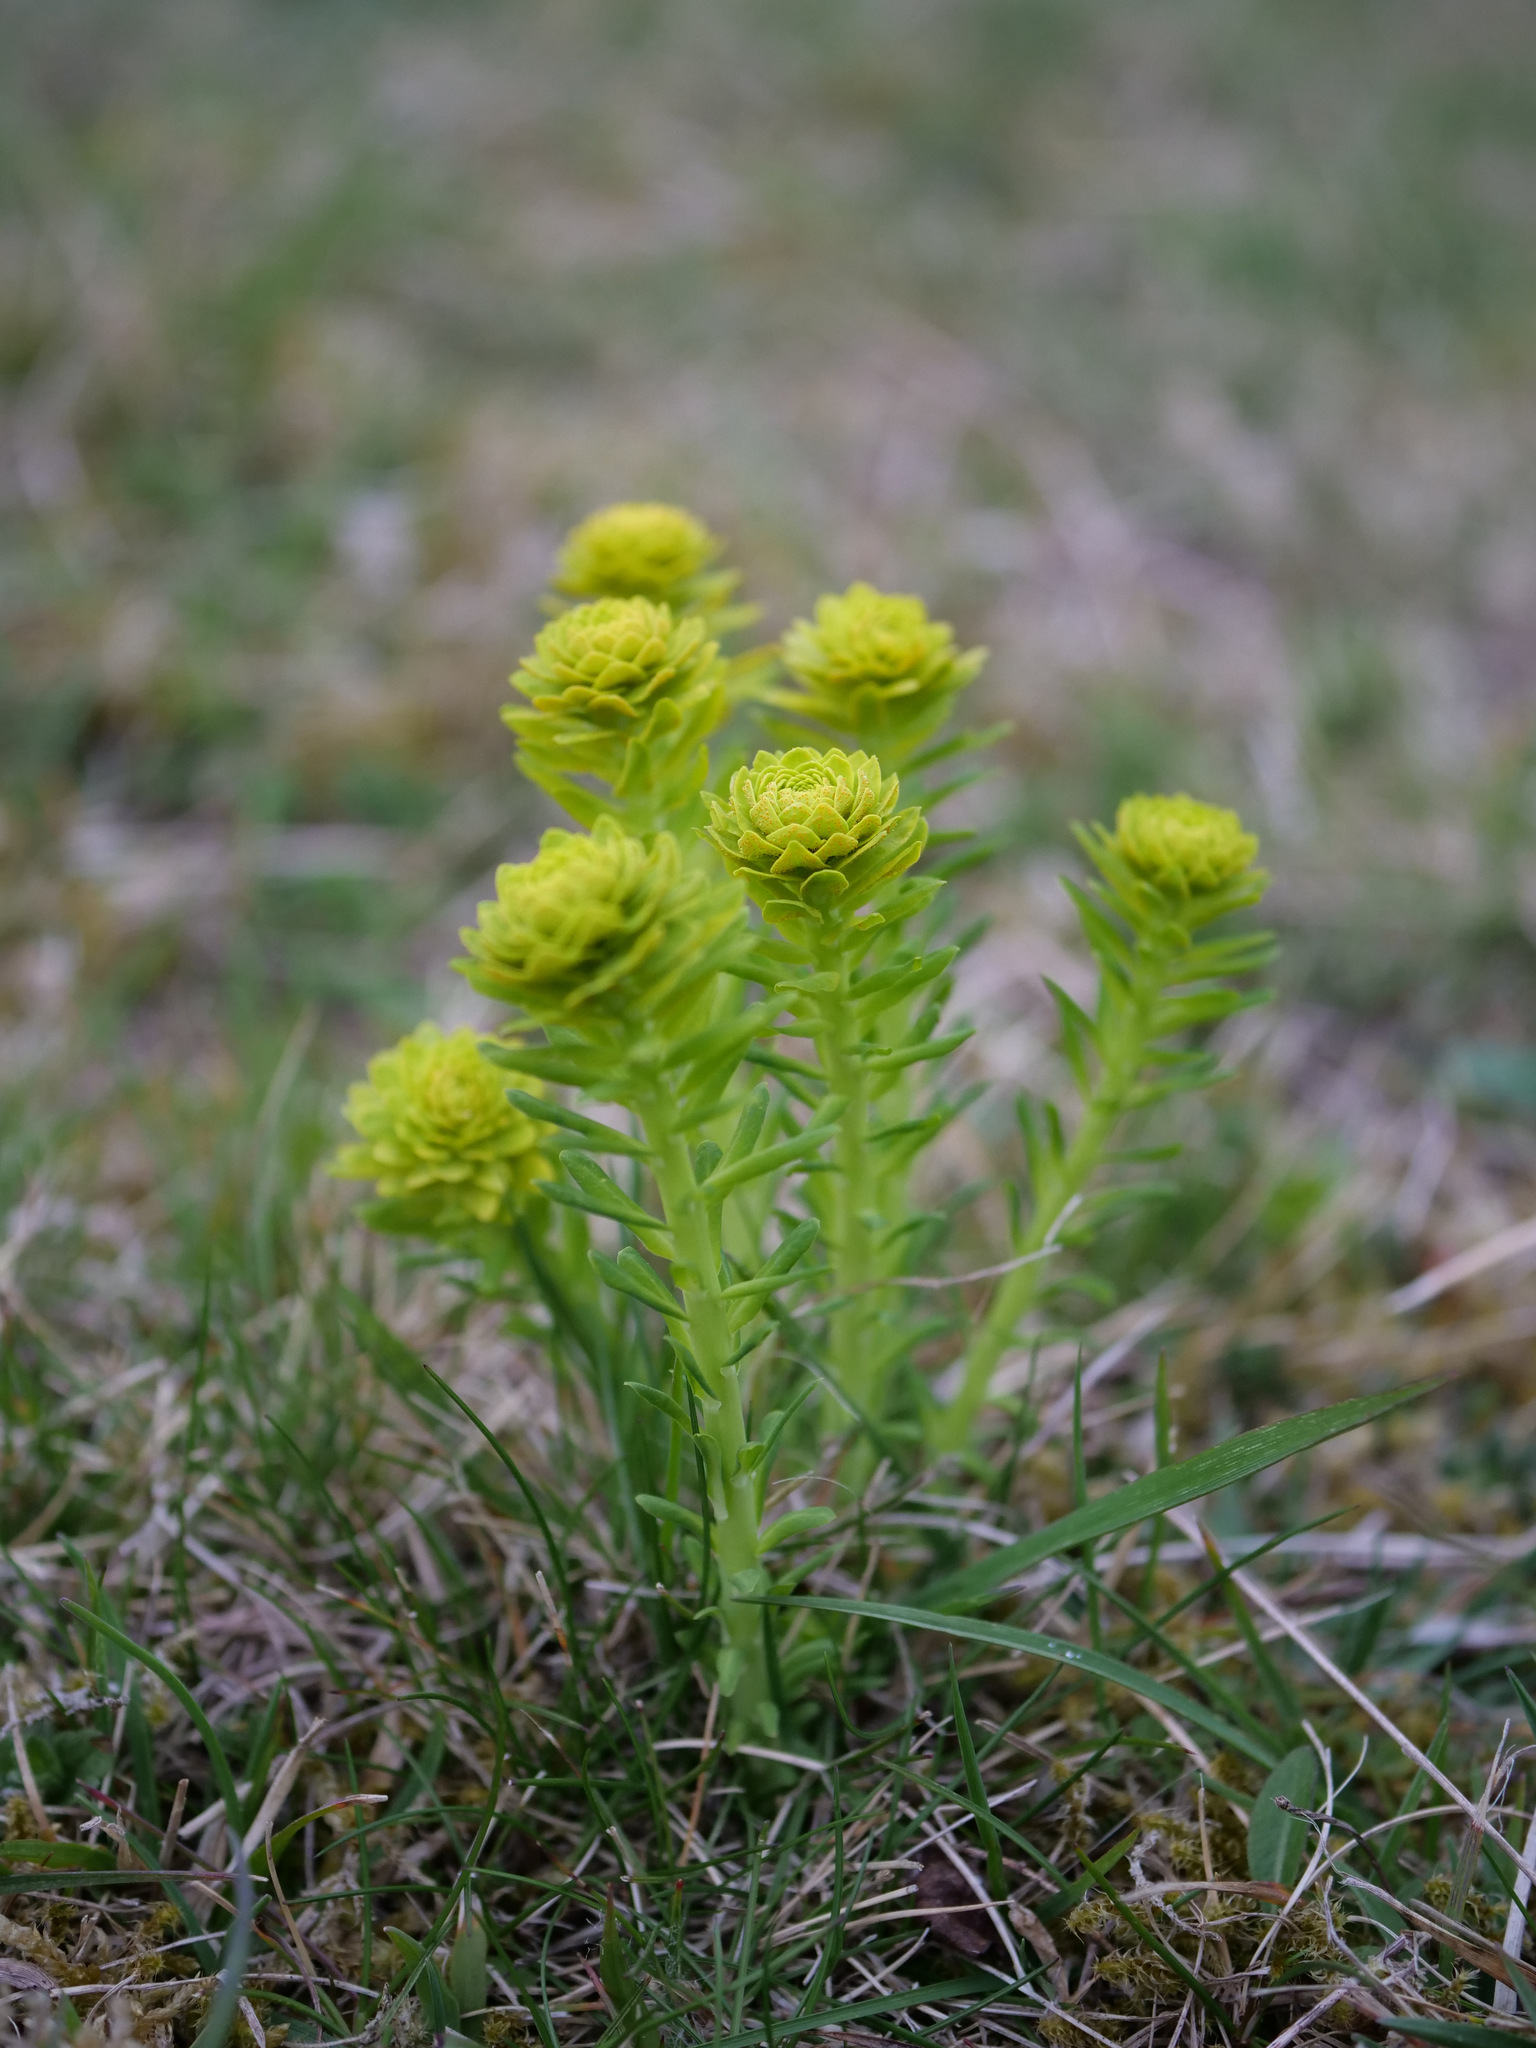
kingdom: Plantae
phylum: Tracheophyta
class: Magnoliopsida
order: Malpighiales
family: Euphorbiaceae
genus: Euphorbia
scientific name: Euphorbia cyparissias
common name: Cypress spurge
